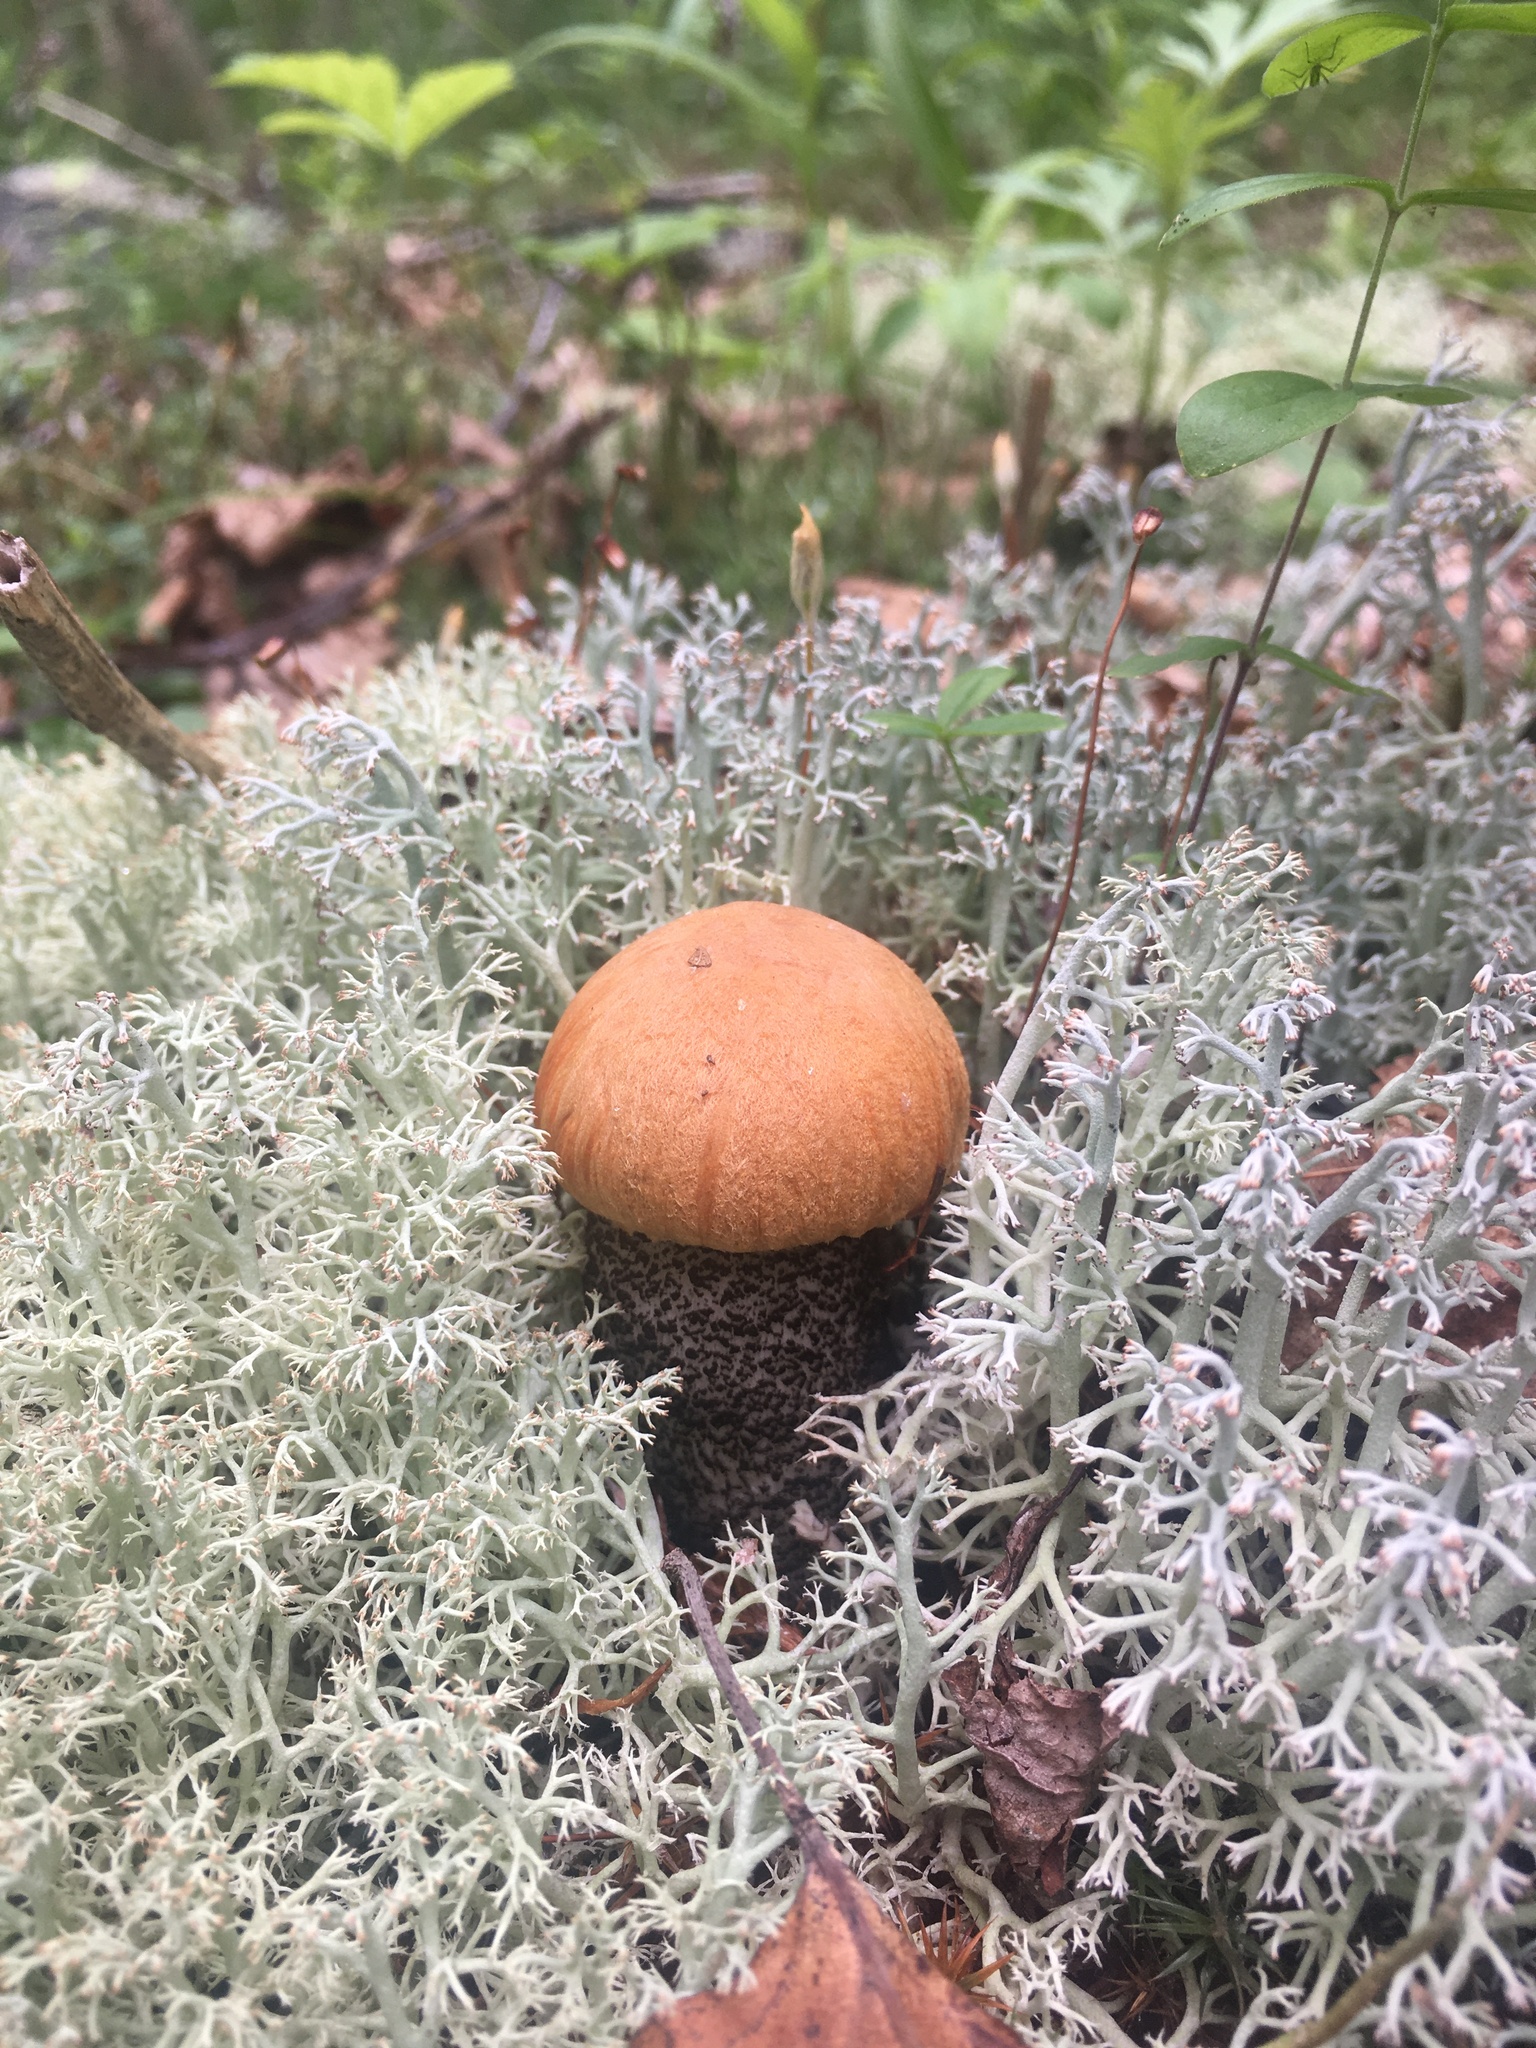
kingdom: Fungi
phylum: Basidiomycota
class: Agaricomycetes
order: Boletales
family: Boletaceae
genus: Leccinum
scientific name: Leccinum versipelle
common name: Orange birch bolete
